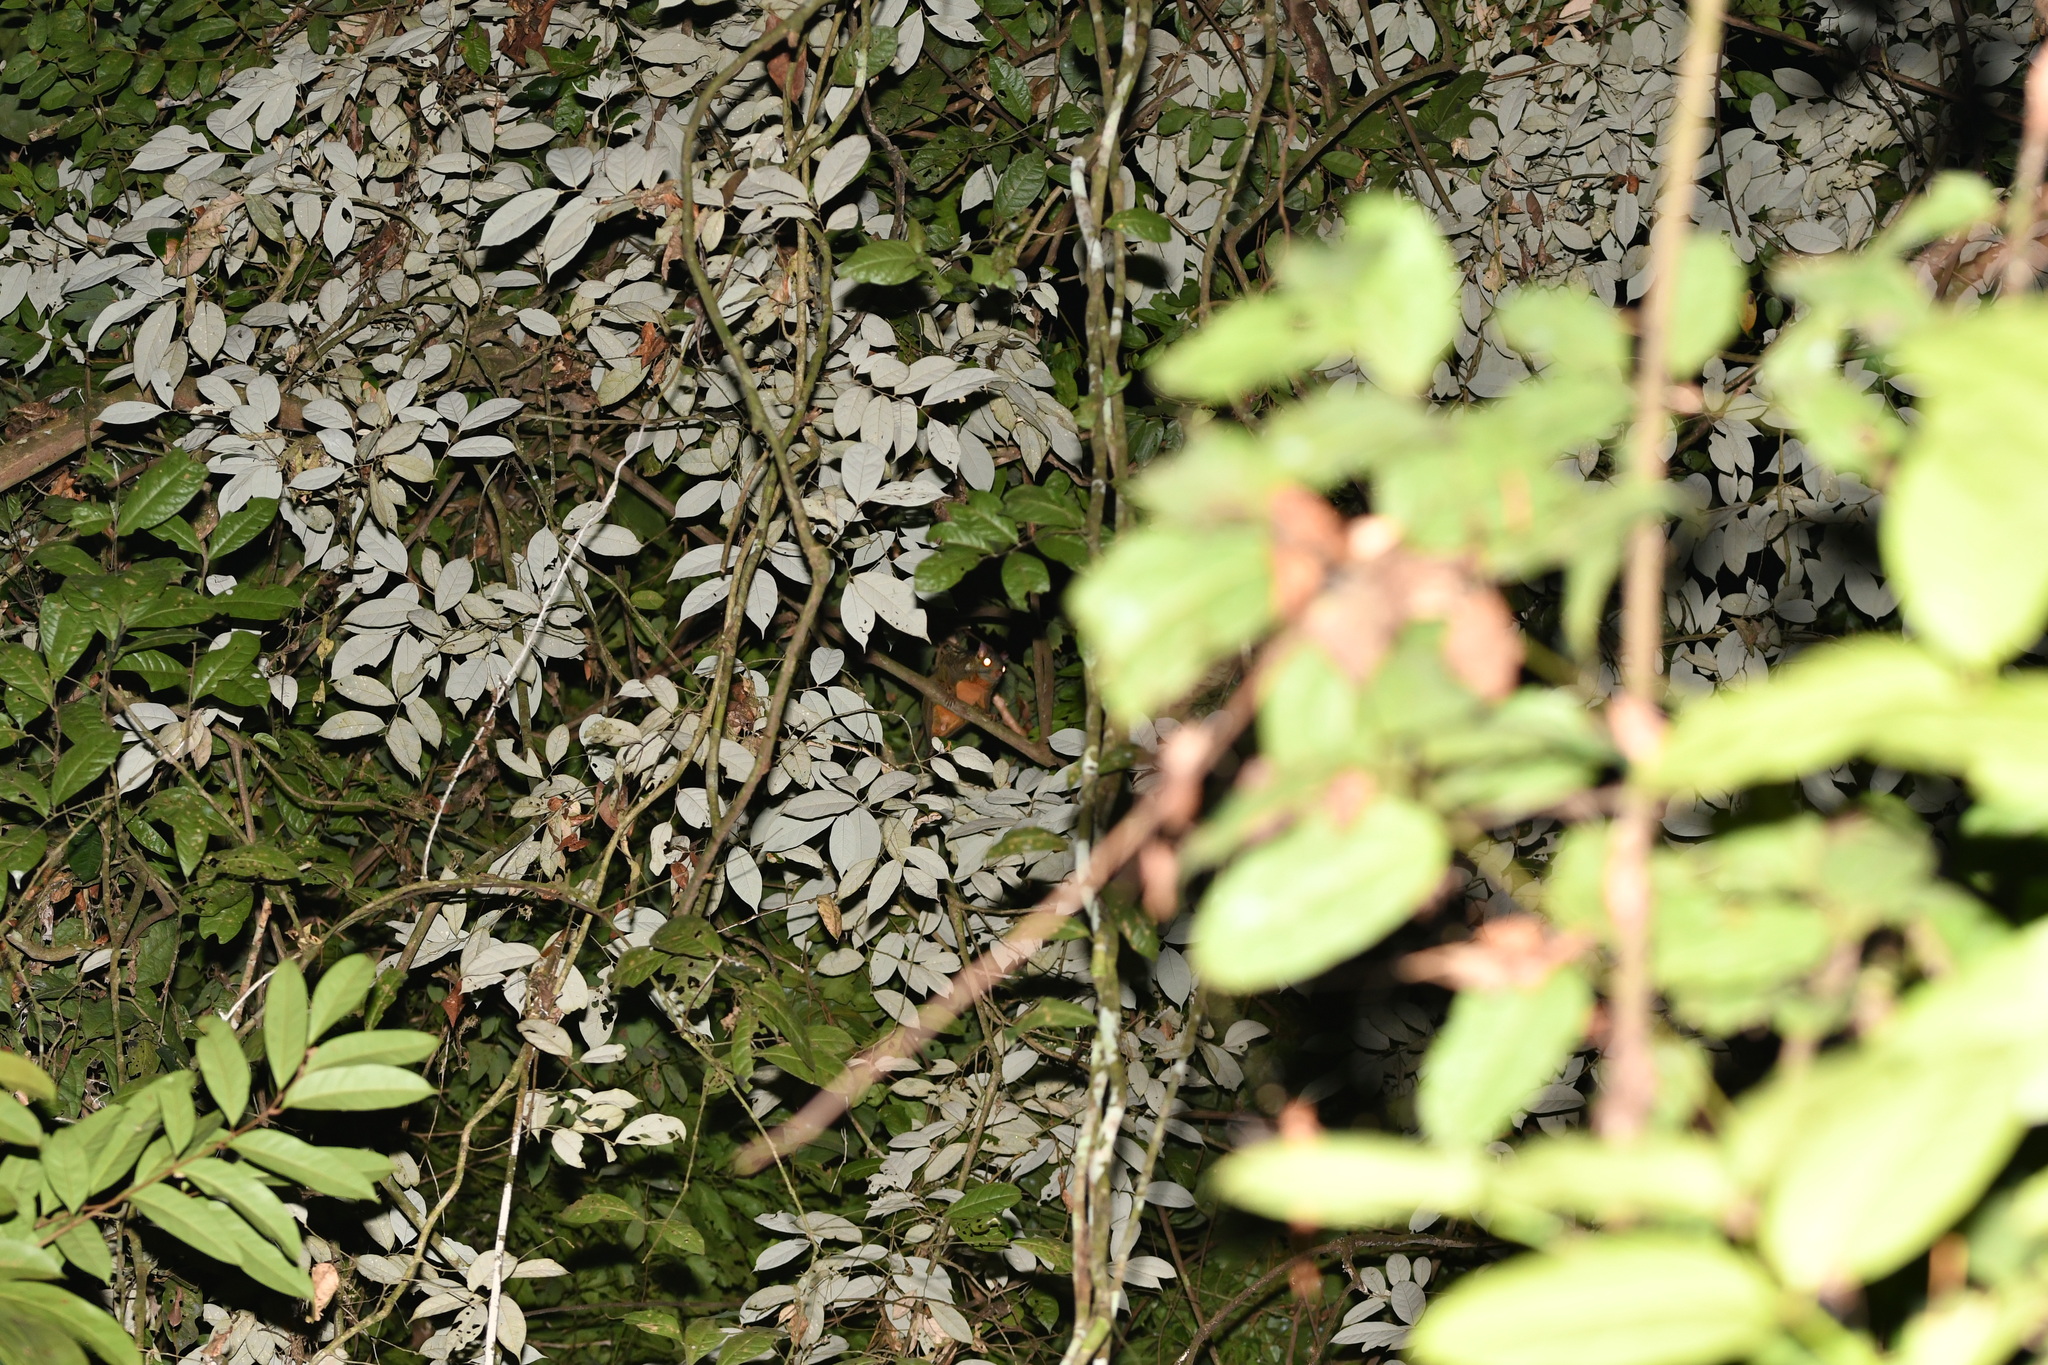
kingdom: Animalia
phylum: Chordata
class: Mammalia
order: Rodentia
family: Anomaluridae
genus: Anomalurus
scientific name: Anomalurus beecrofti
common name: Beecroft's scaly-tailed squirrel
